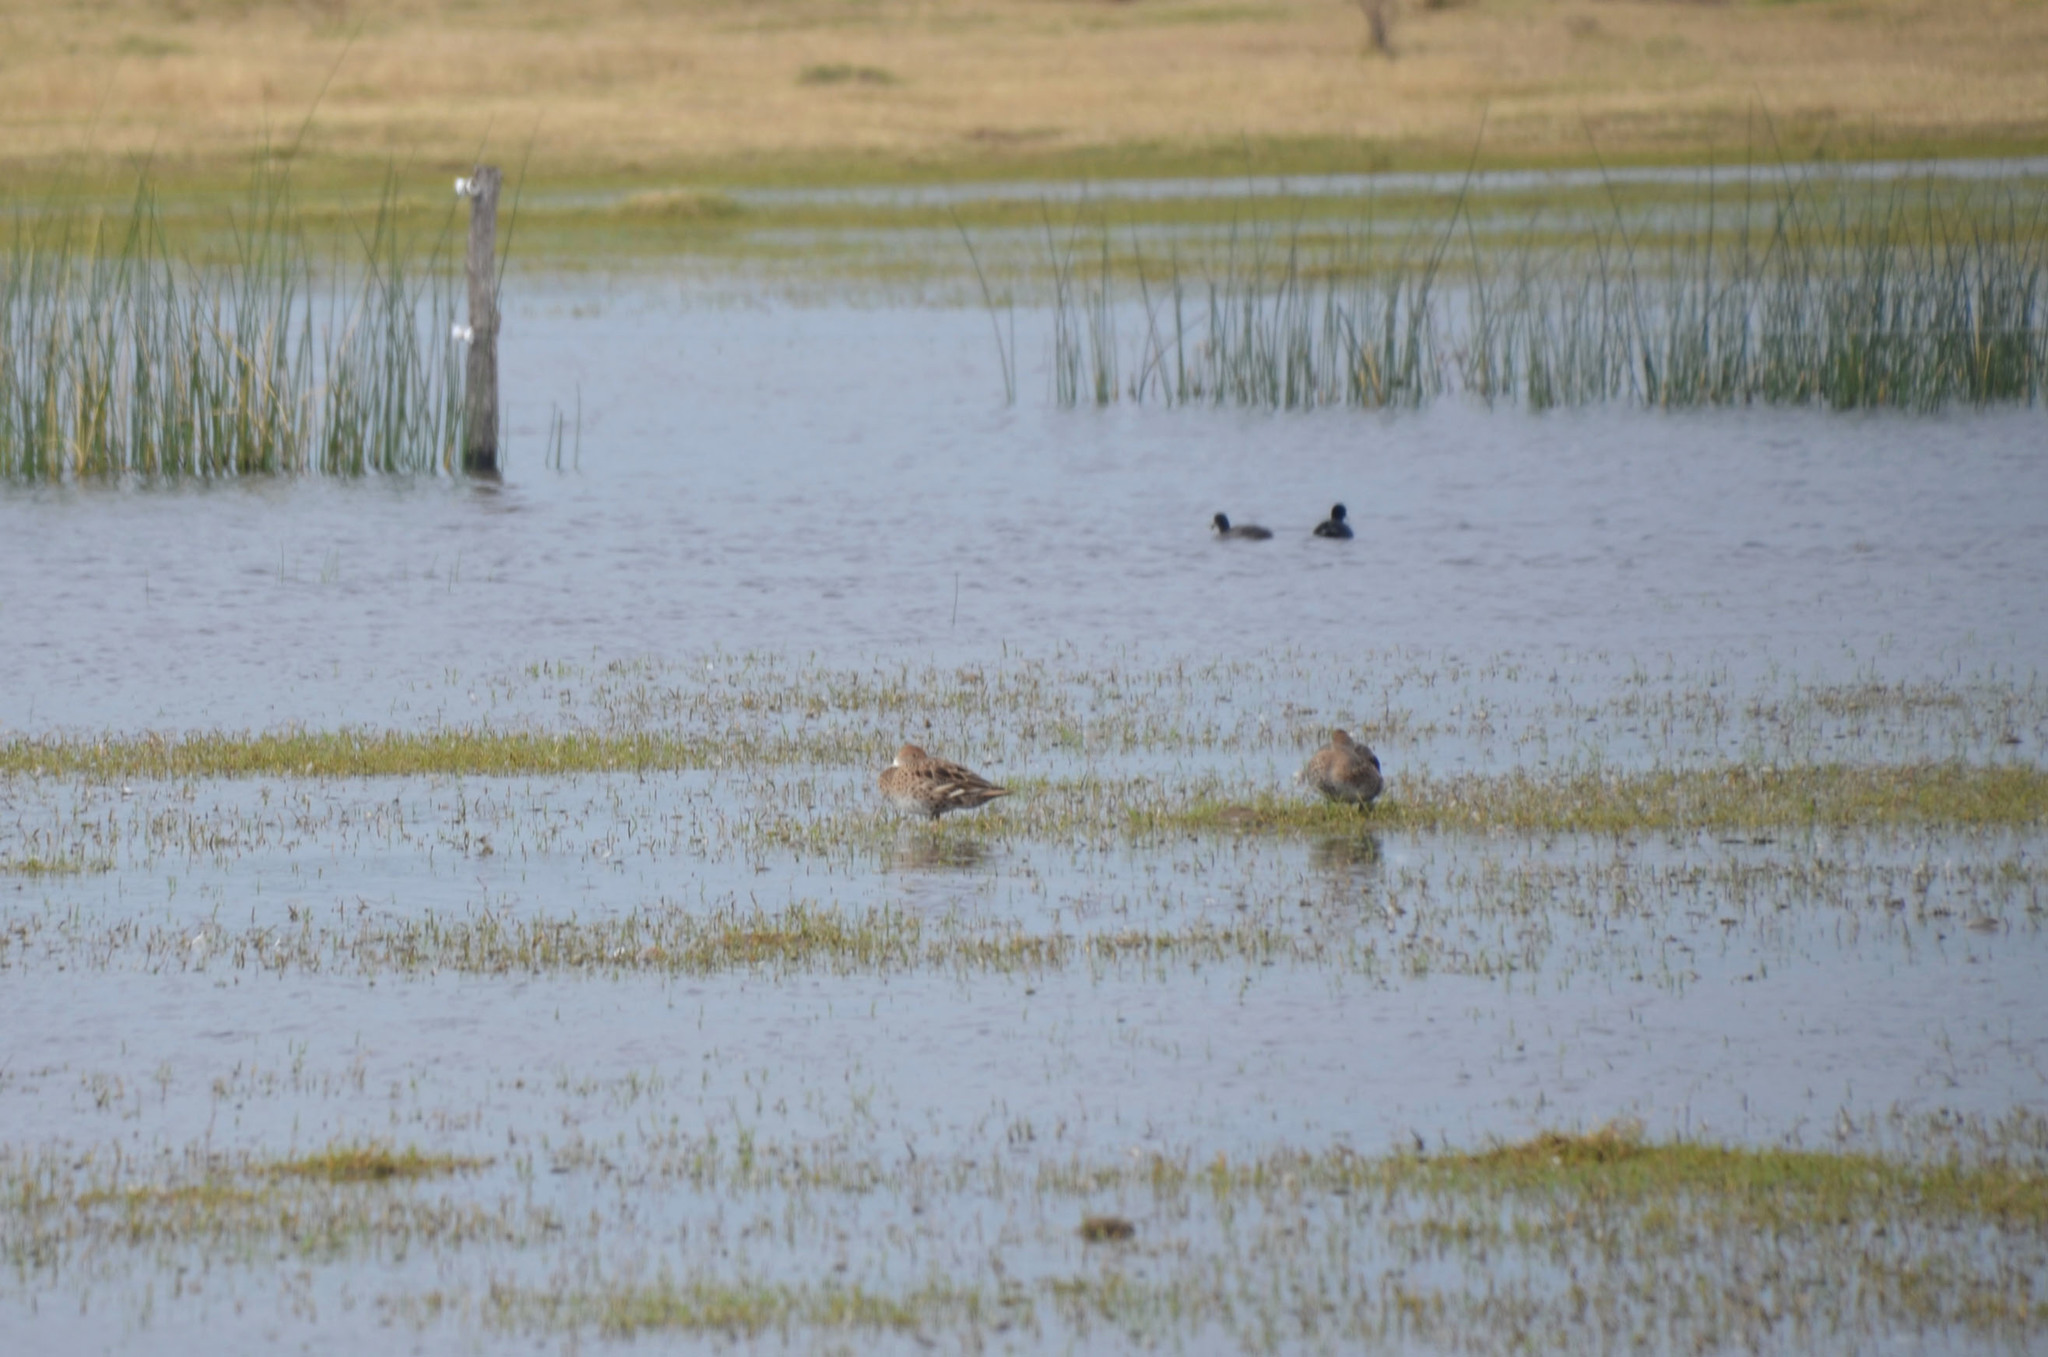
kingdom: Animalia
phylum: Chordata
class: Aves
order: Anseriformes
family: Anatidae
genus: Anas
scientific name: Anas georgica
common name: Yellow-billed pintail
